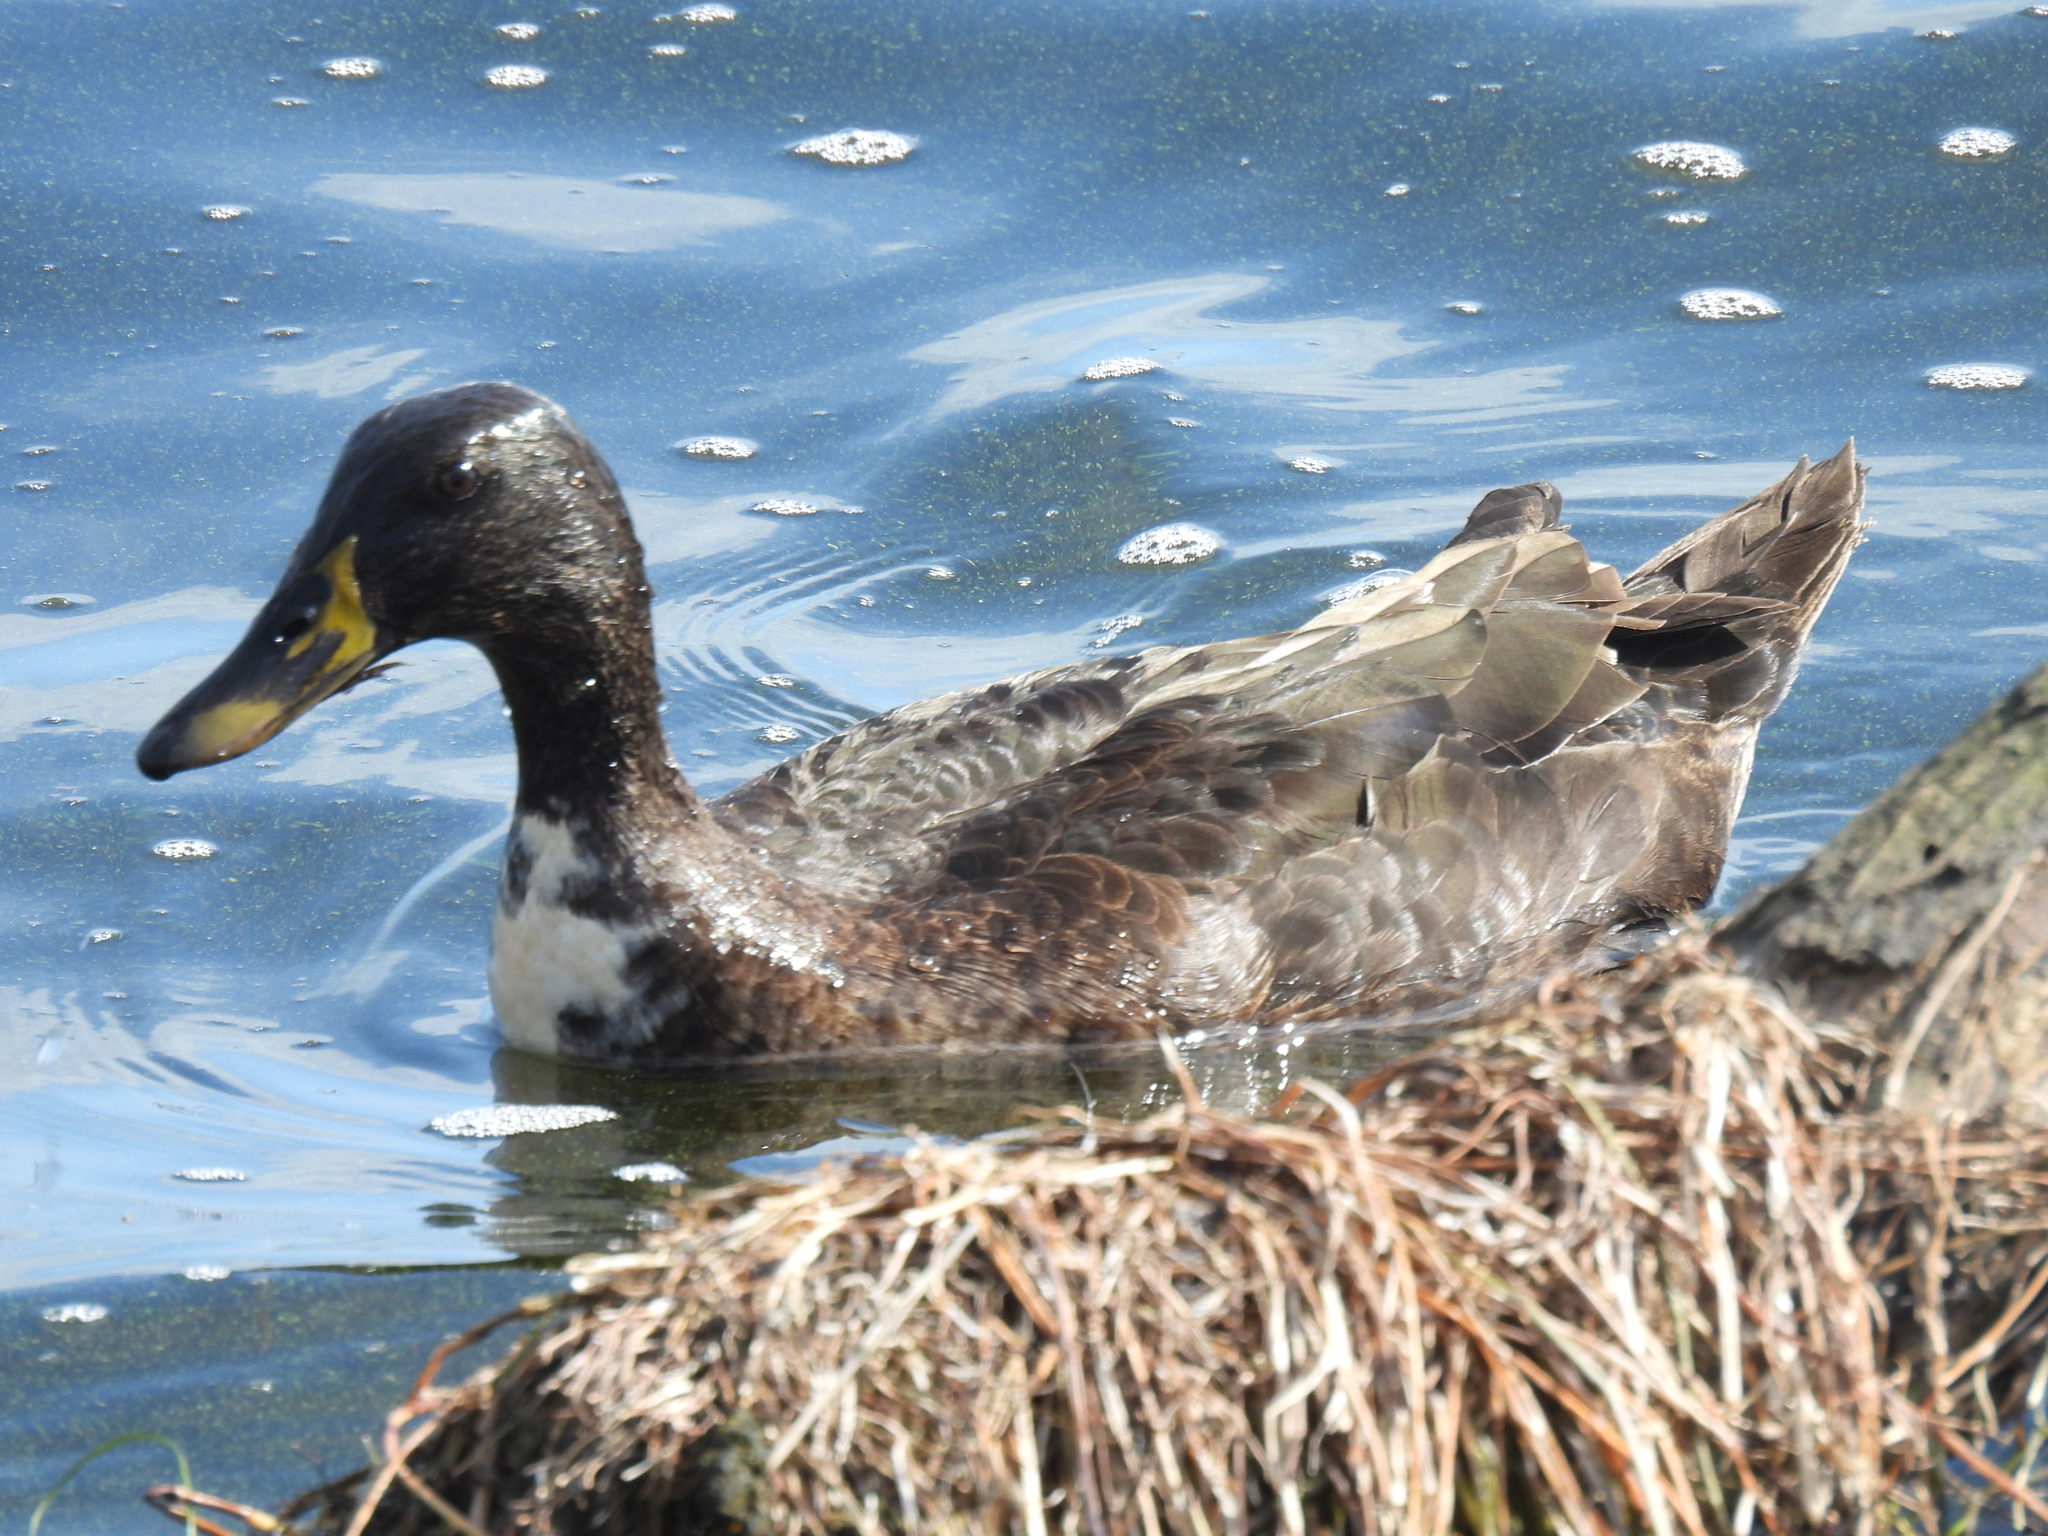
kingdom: Animalia
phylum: Chordata
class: Aves
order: Anseriformes
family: Anatidae
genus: Anas
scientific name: Anas platyrhynchos
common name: Mallard
